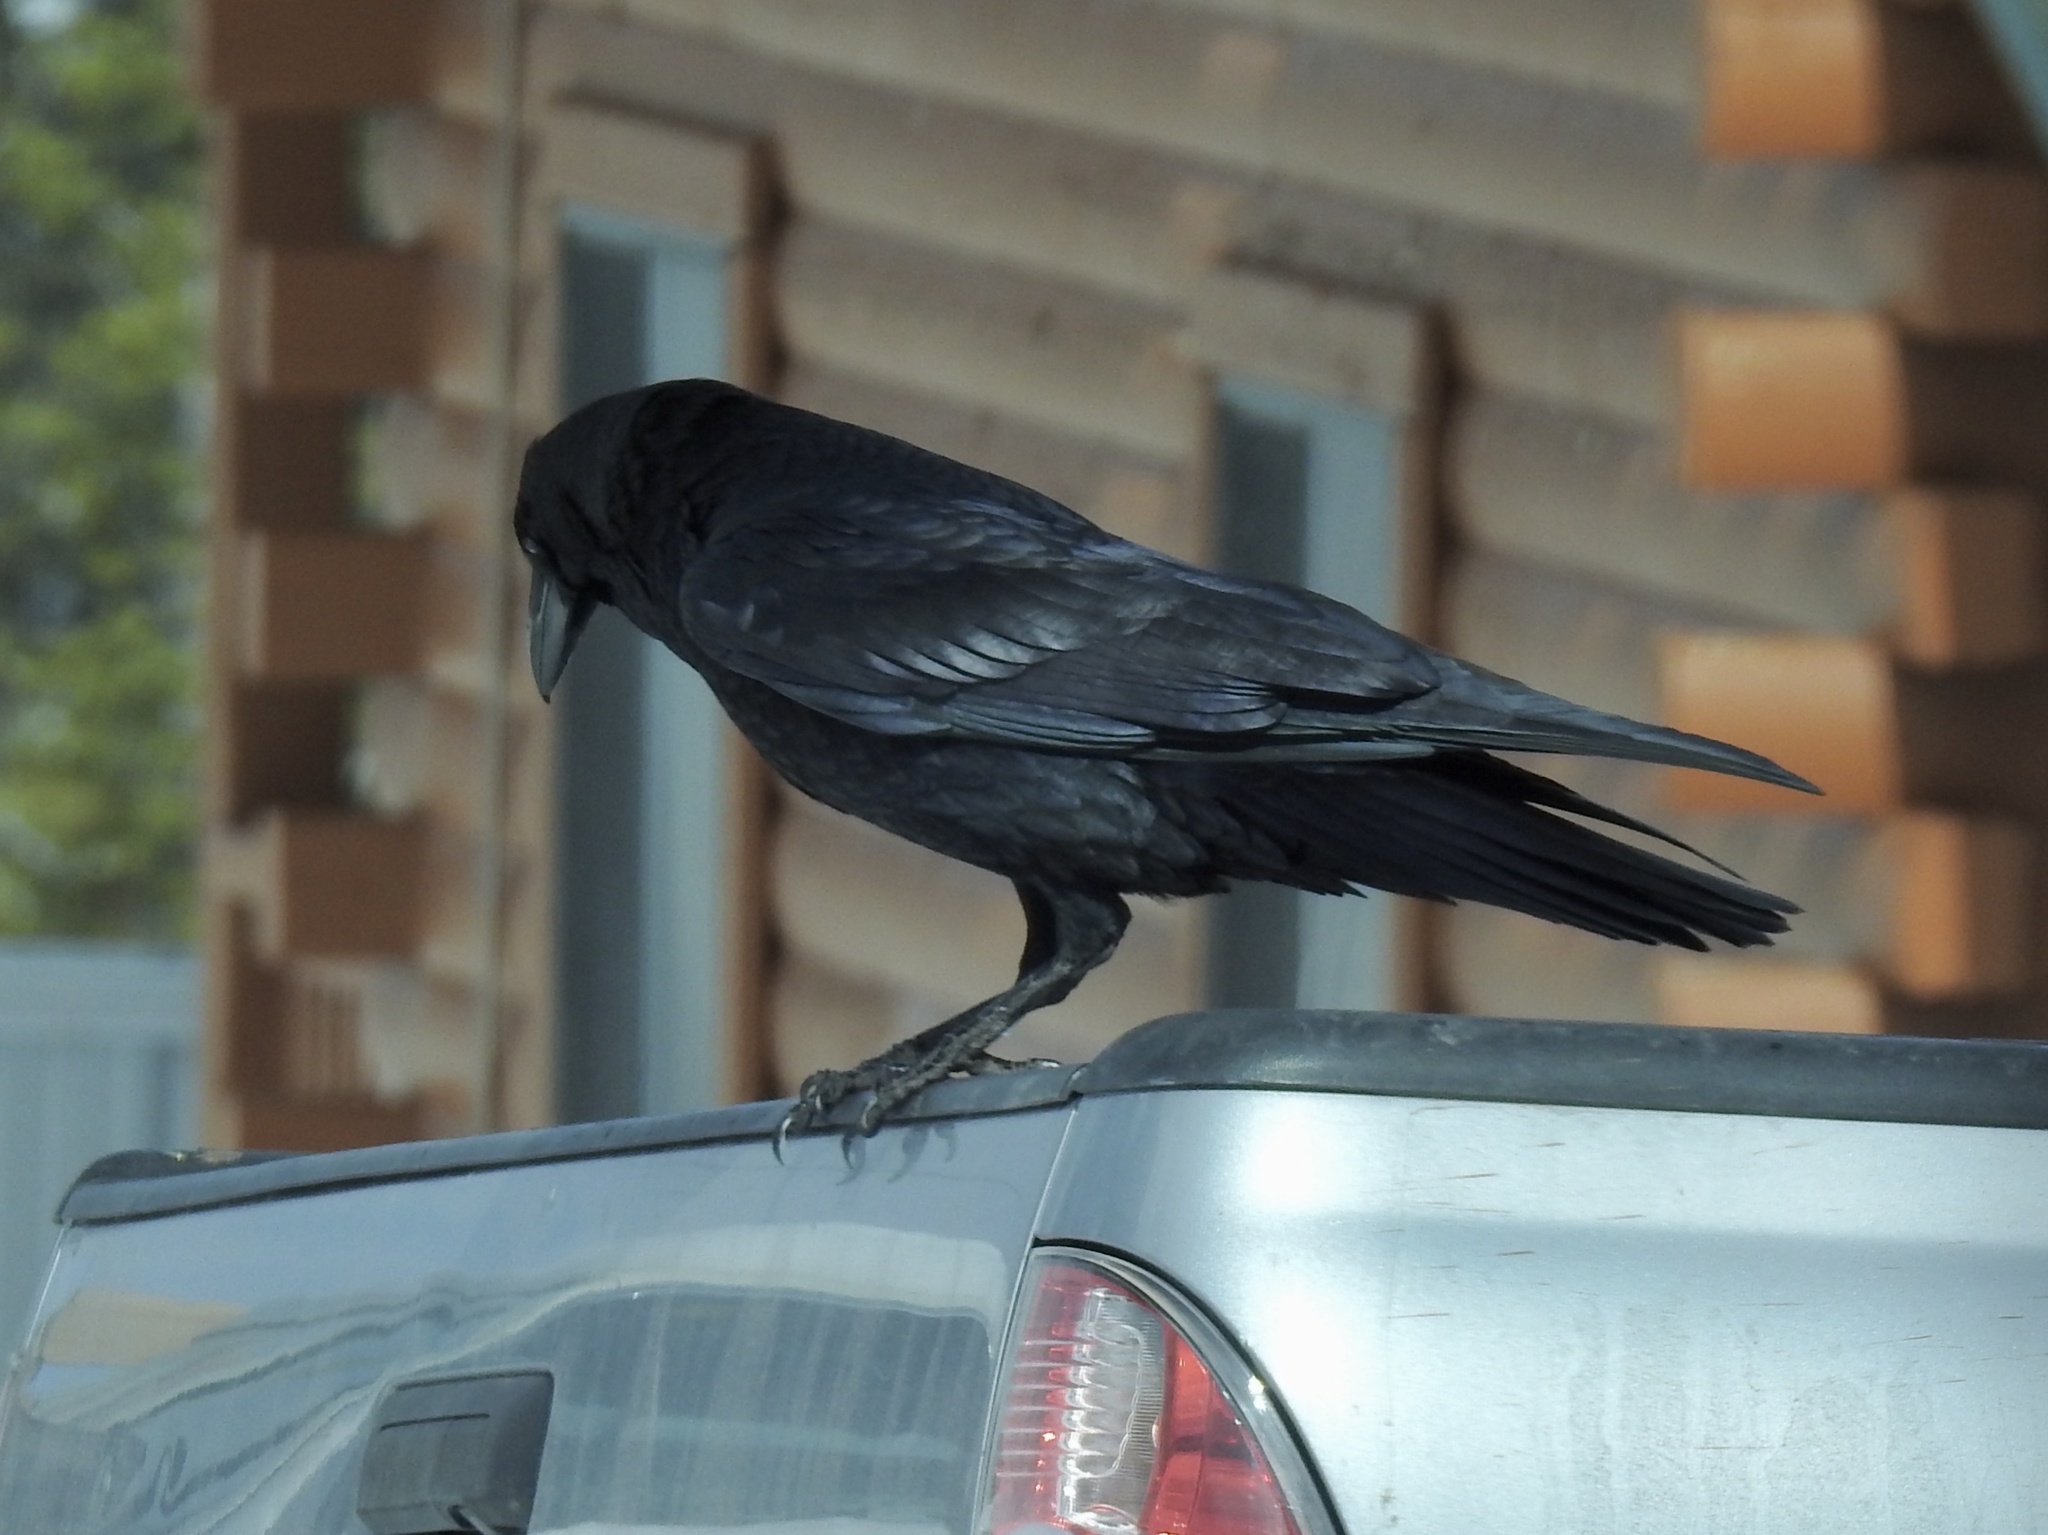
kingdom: Animalia
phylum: Chordata
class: Aves
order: Passeriformes
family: Corvidae
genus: Corvus
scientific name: Corvus corax
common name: Common raven
